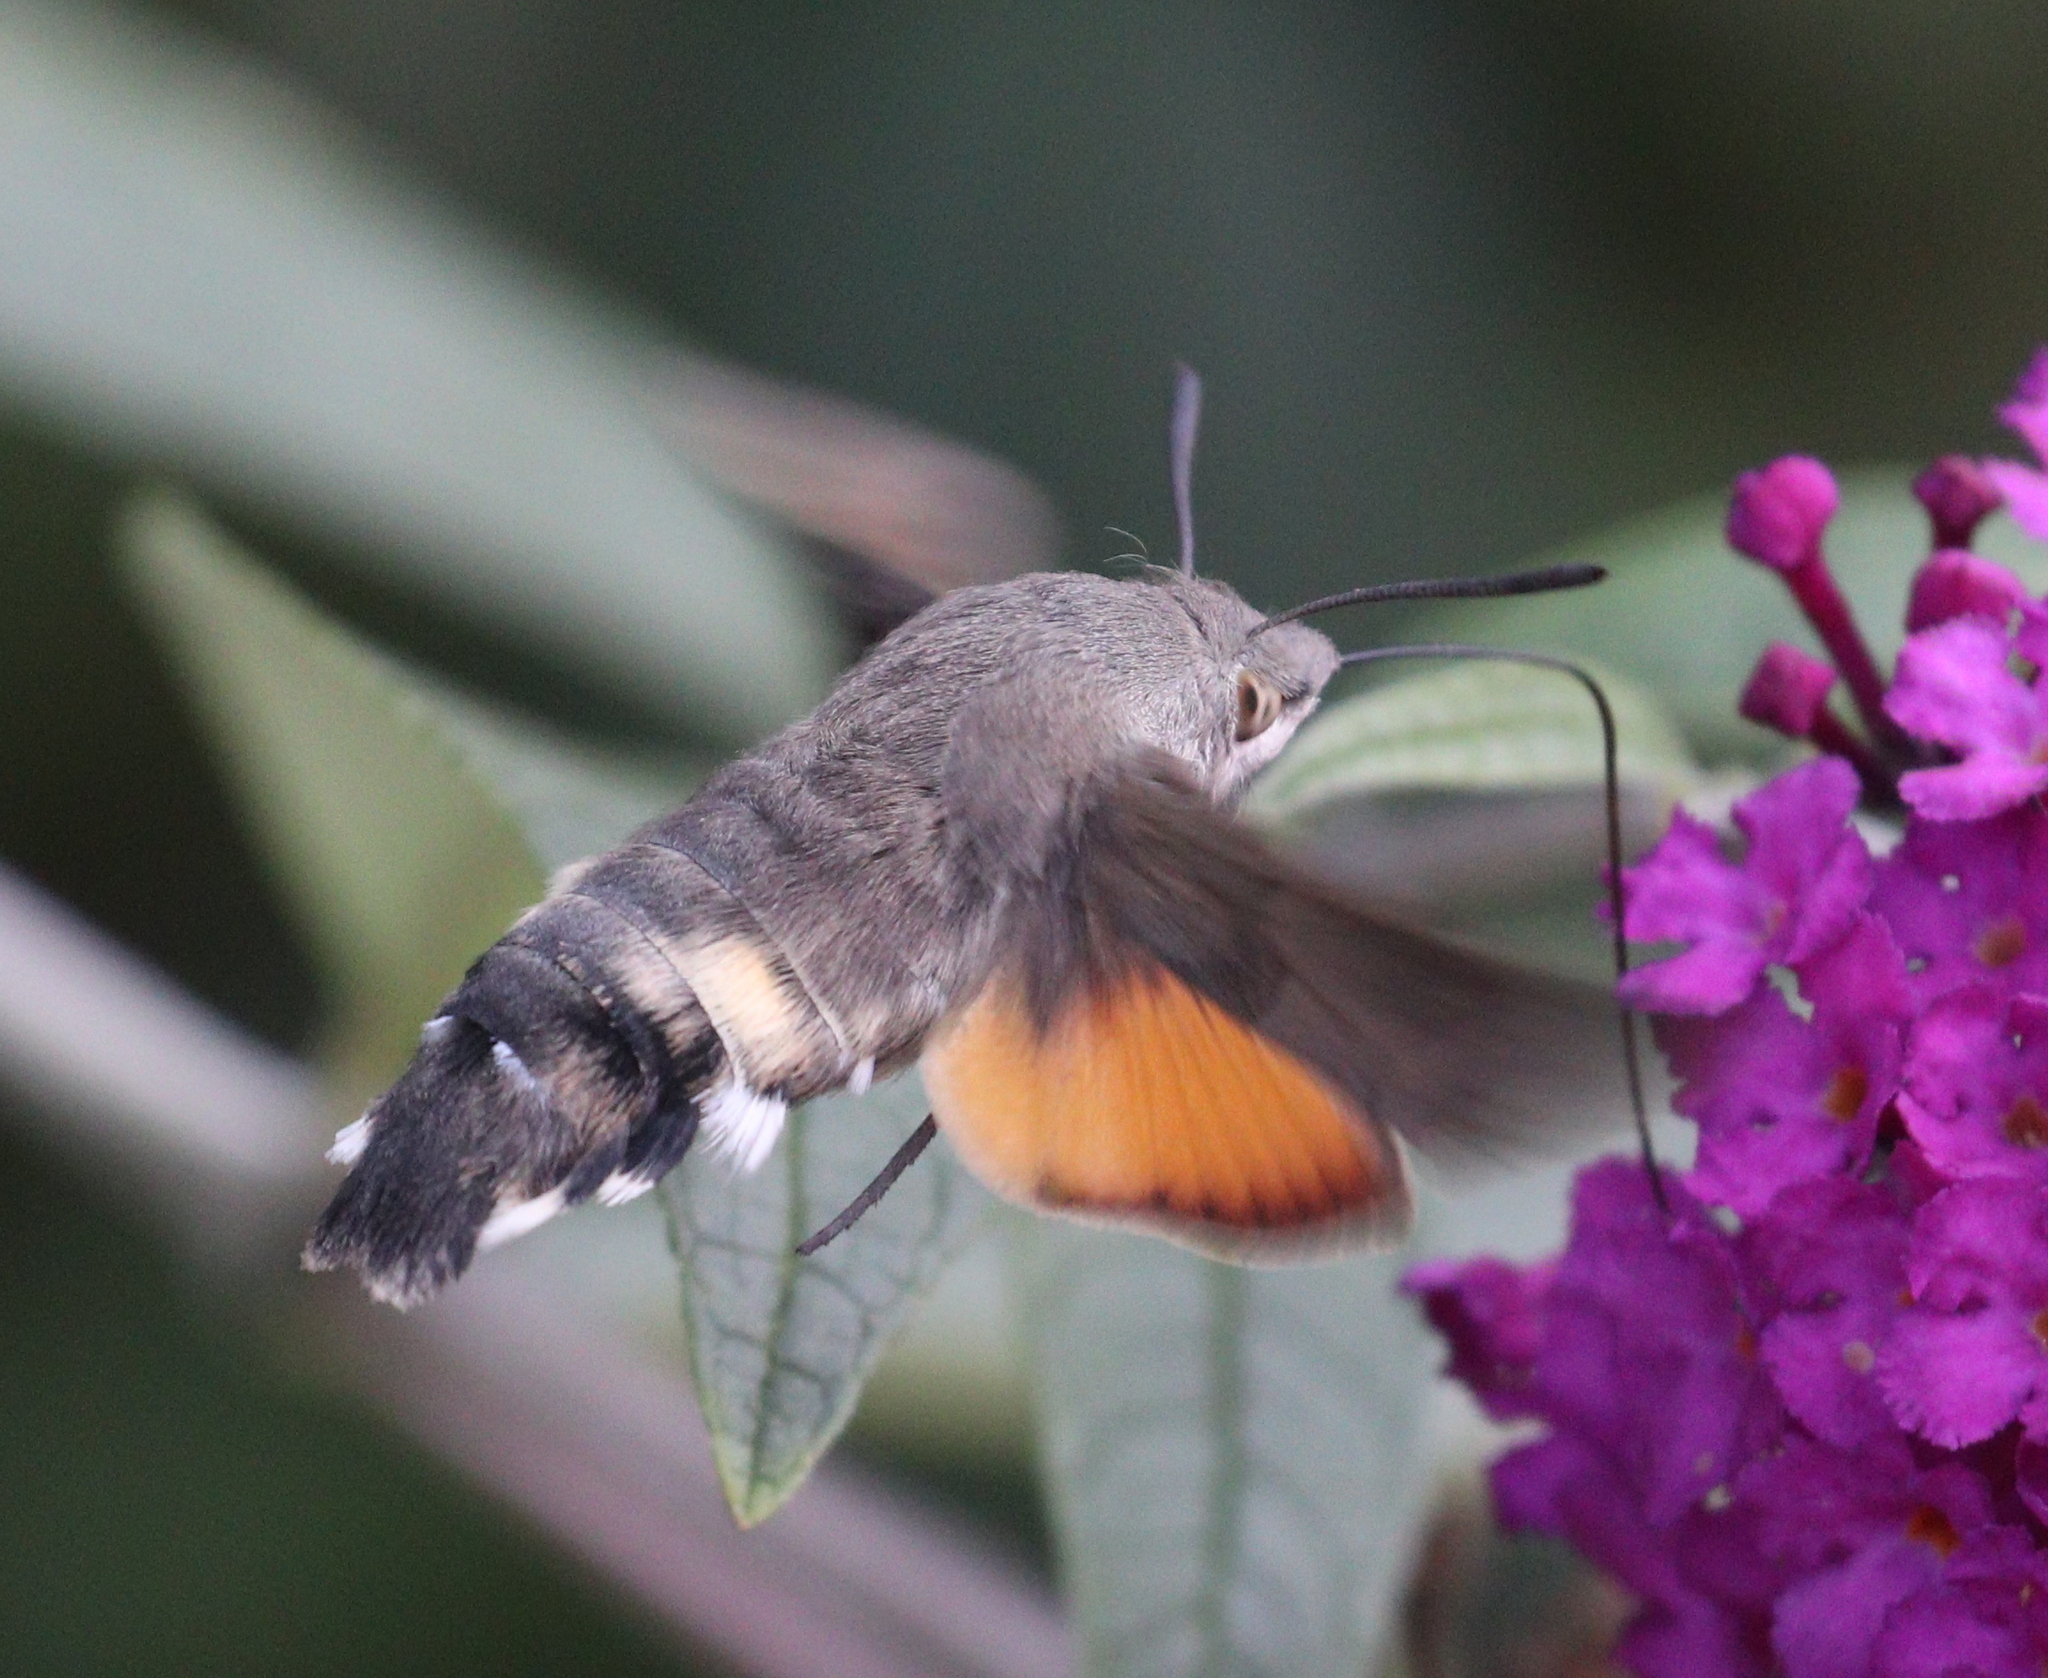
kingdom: Animalia
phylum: Arthropoda
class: Insecta
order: Lepidoptera
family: Sphingidae
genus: Macroglossum
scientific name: Macroglossum stellatarum
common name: Humming-bird hawk-moth
